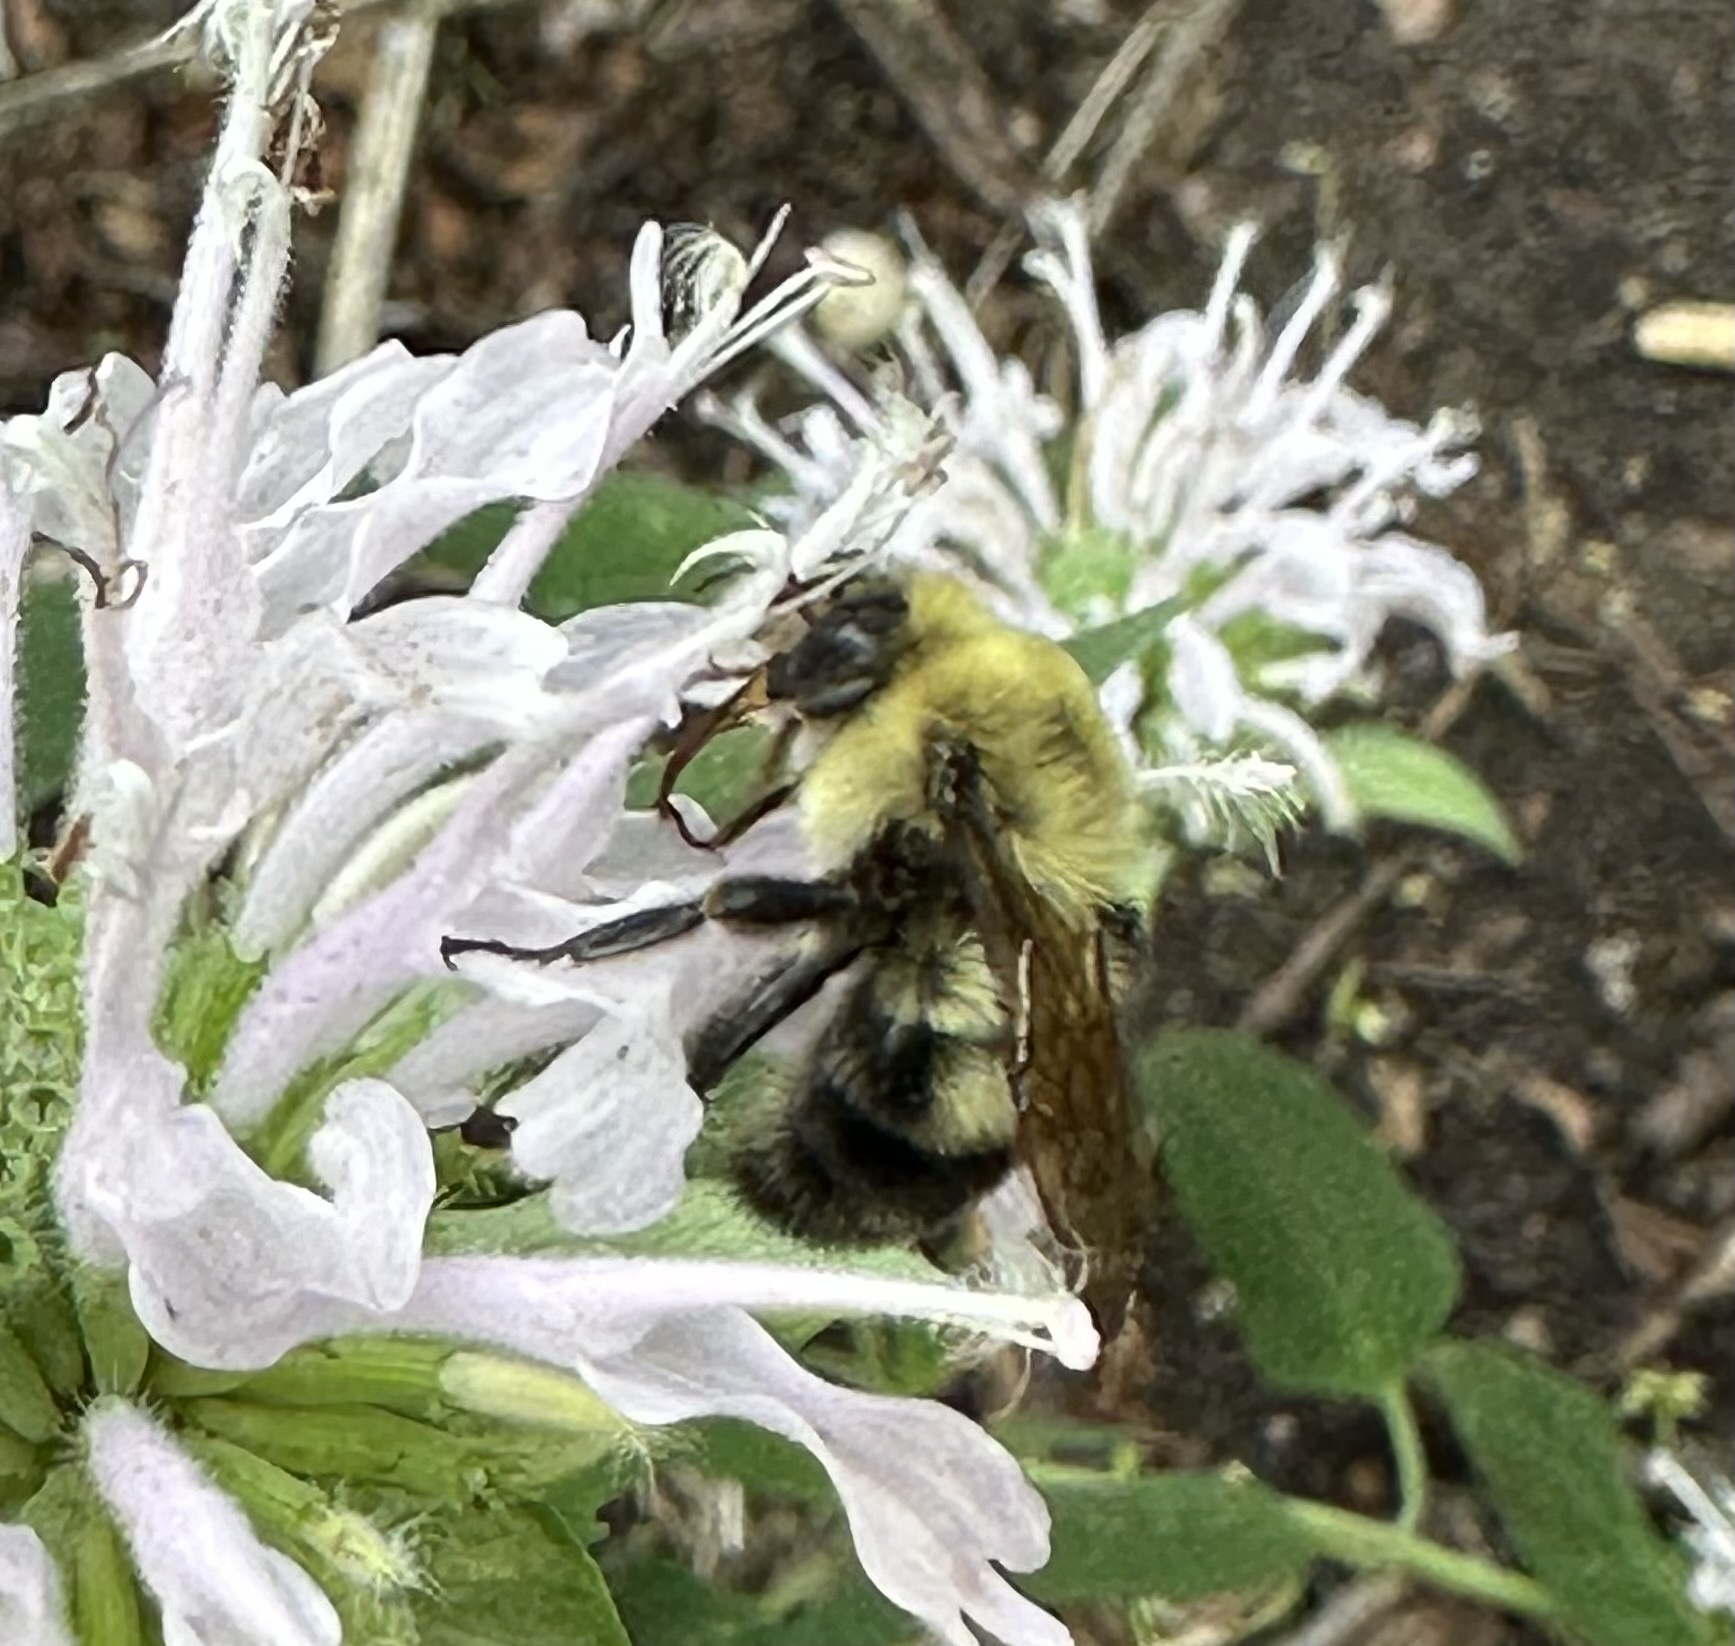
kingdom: Animalia
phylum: Arthropoda
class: Insecta
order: Hymenoptera
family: Apidae
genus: Bombus
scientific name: Bombus bimaculatus
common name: Two-spotted bumble bee
